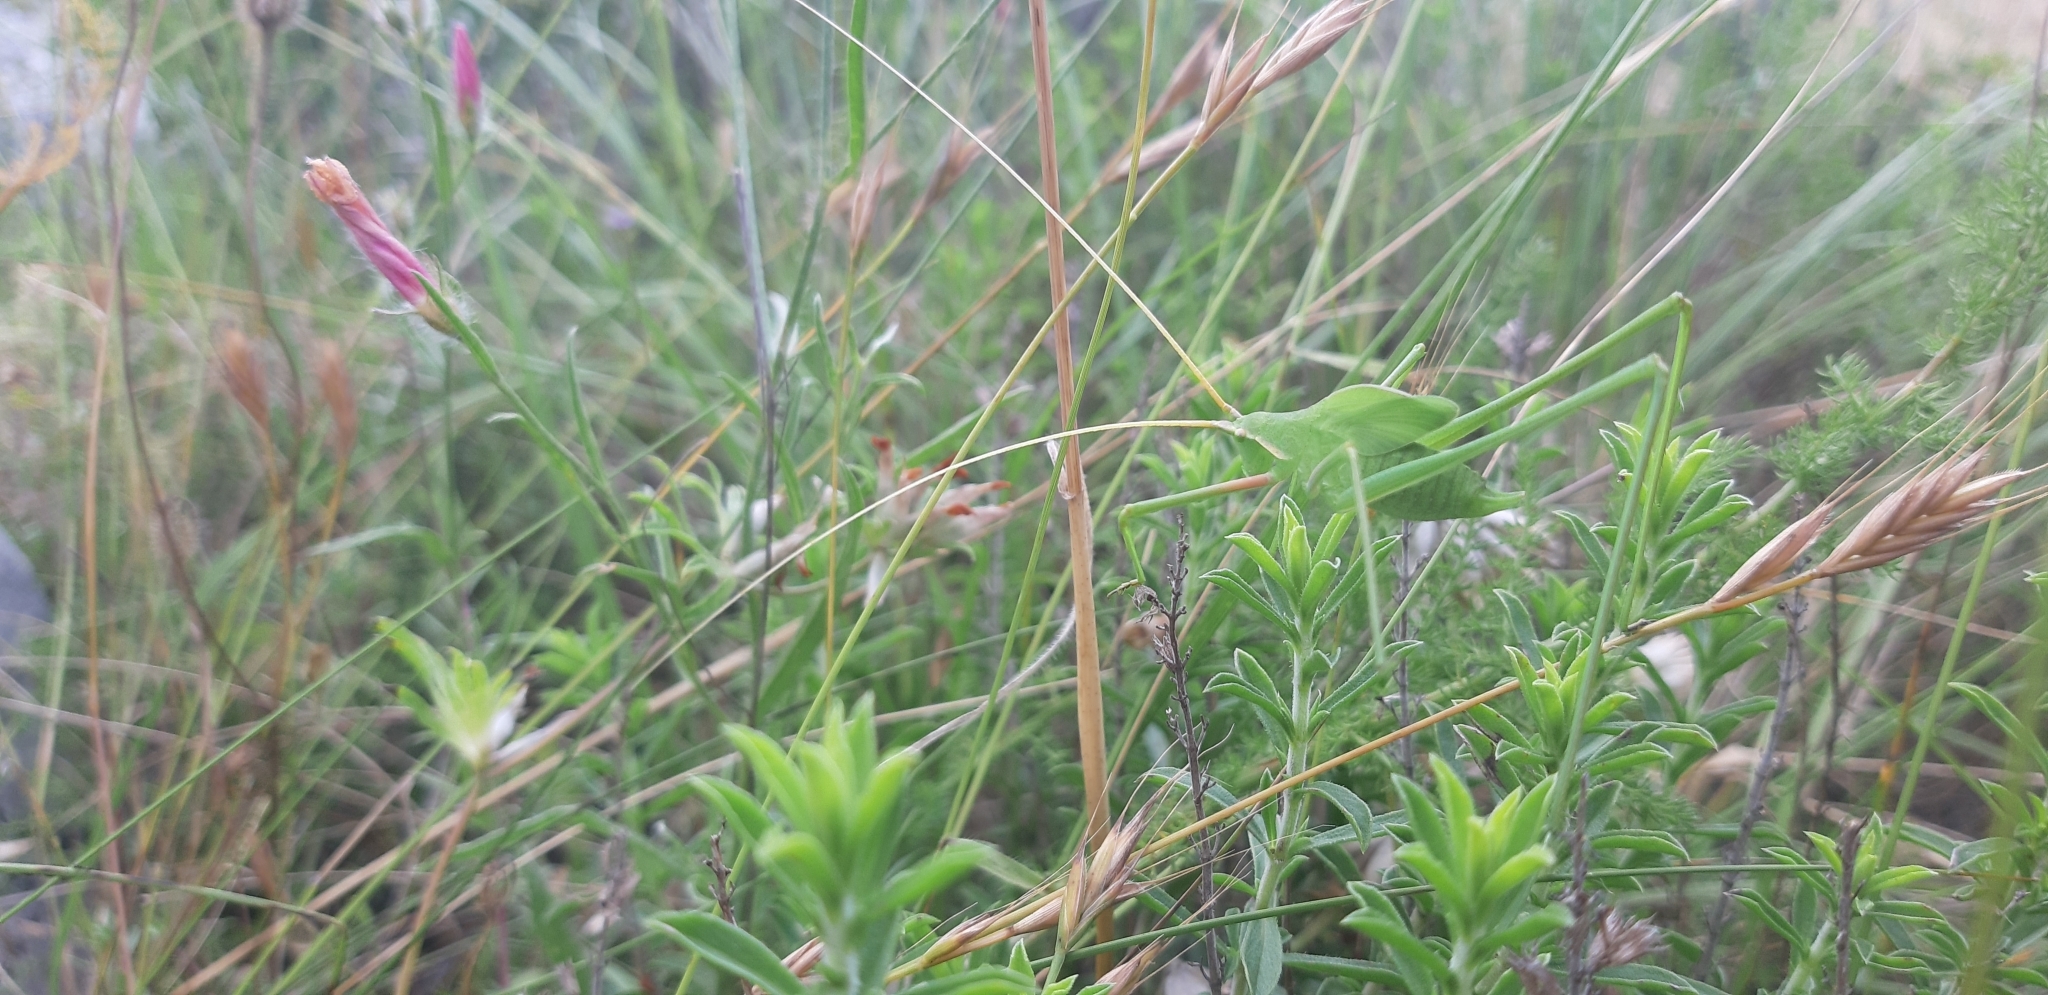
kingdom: Animalia
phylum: Arthropoda
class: Insecta
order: Orthoptera
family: Tettigoniidae
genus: Acrometopa
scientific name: Acrometopa italica
